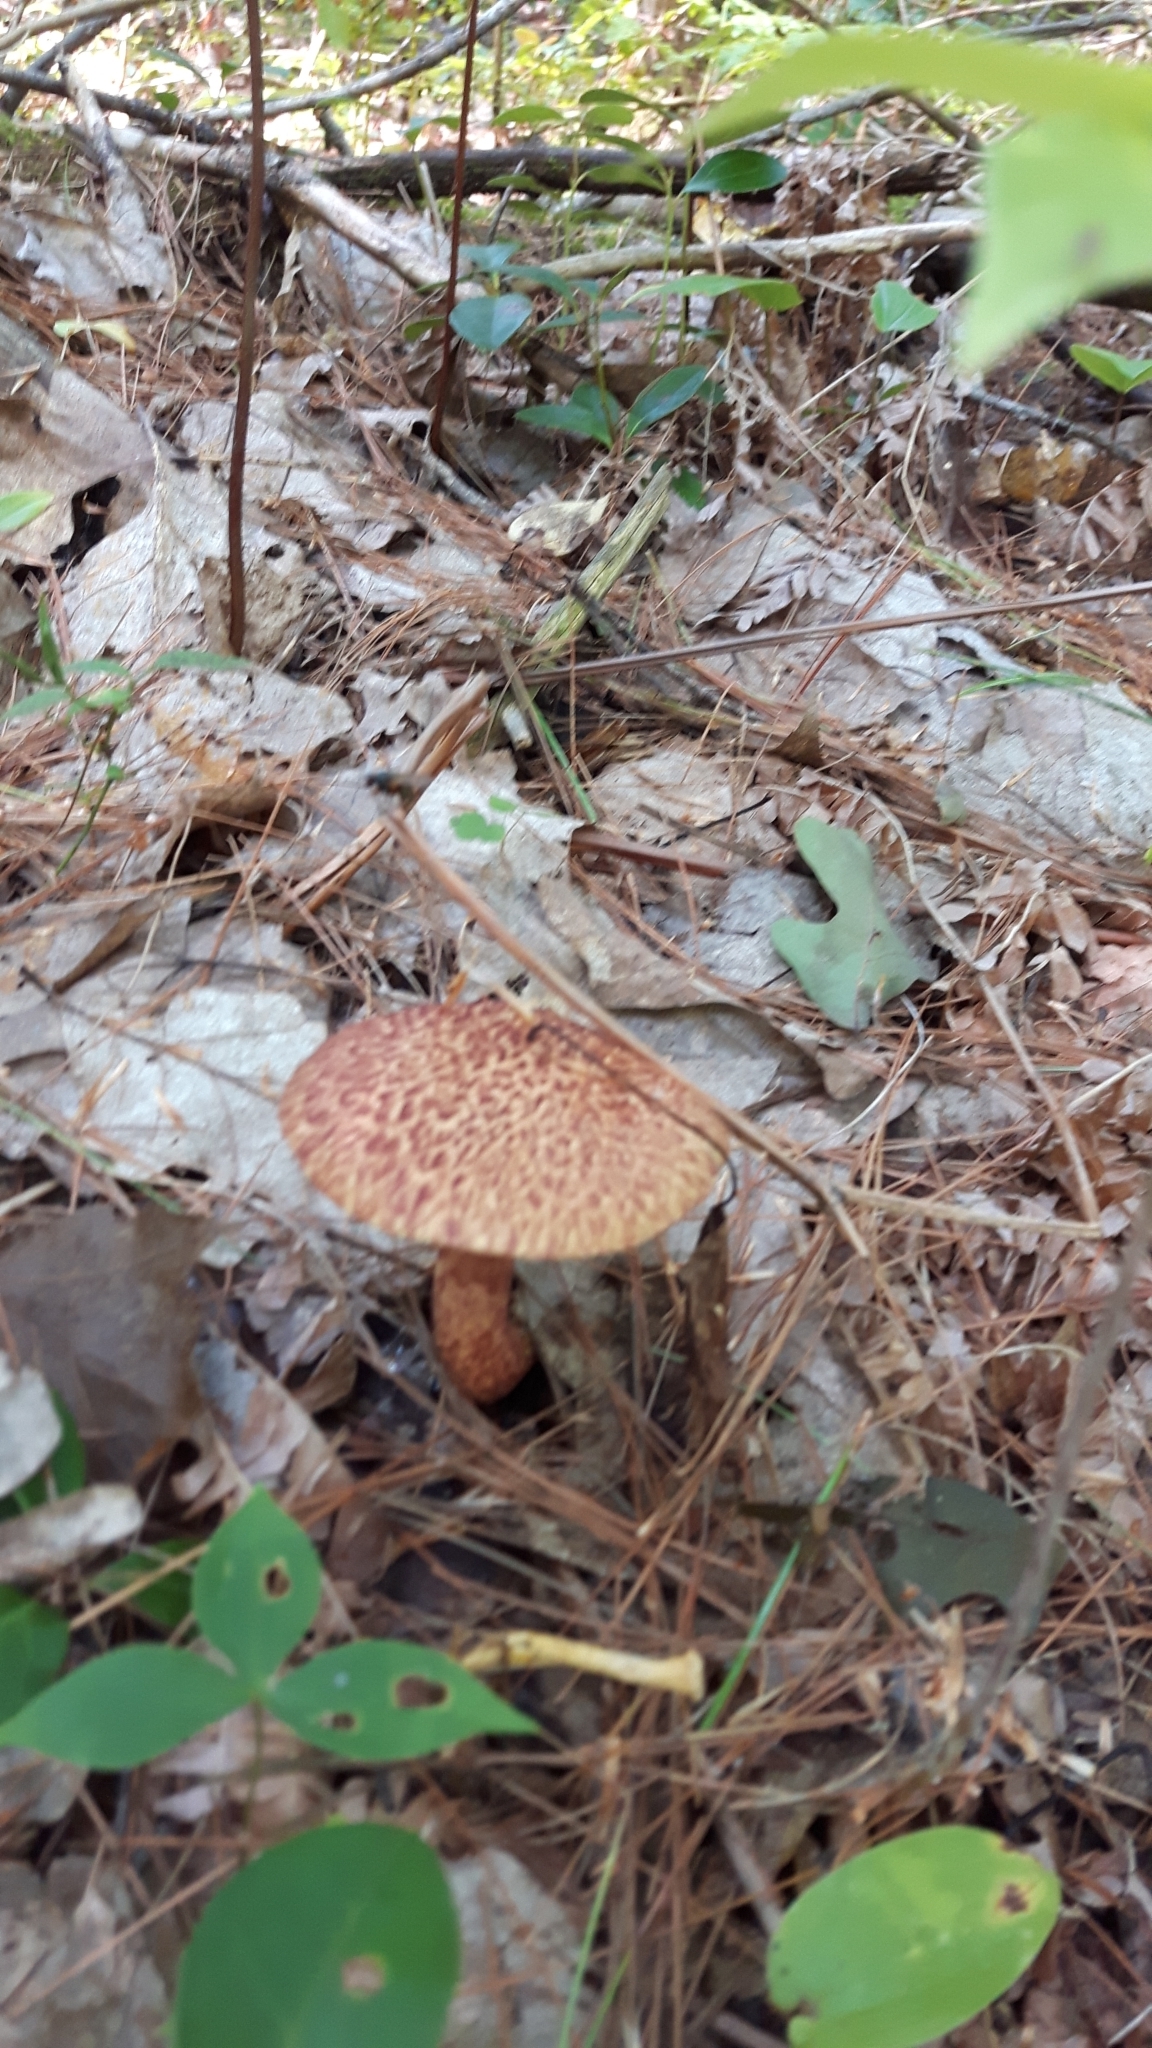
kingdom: Fungi
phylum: Basidiomycota
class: Agaricomycetes
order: Boletales
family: Suillaceae
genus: Suillus
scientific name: Suillus spraguei
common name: Painted suillus
